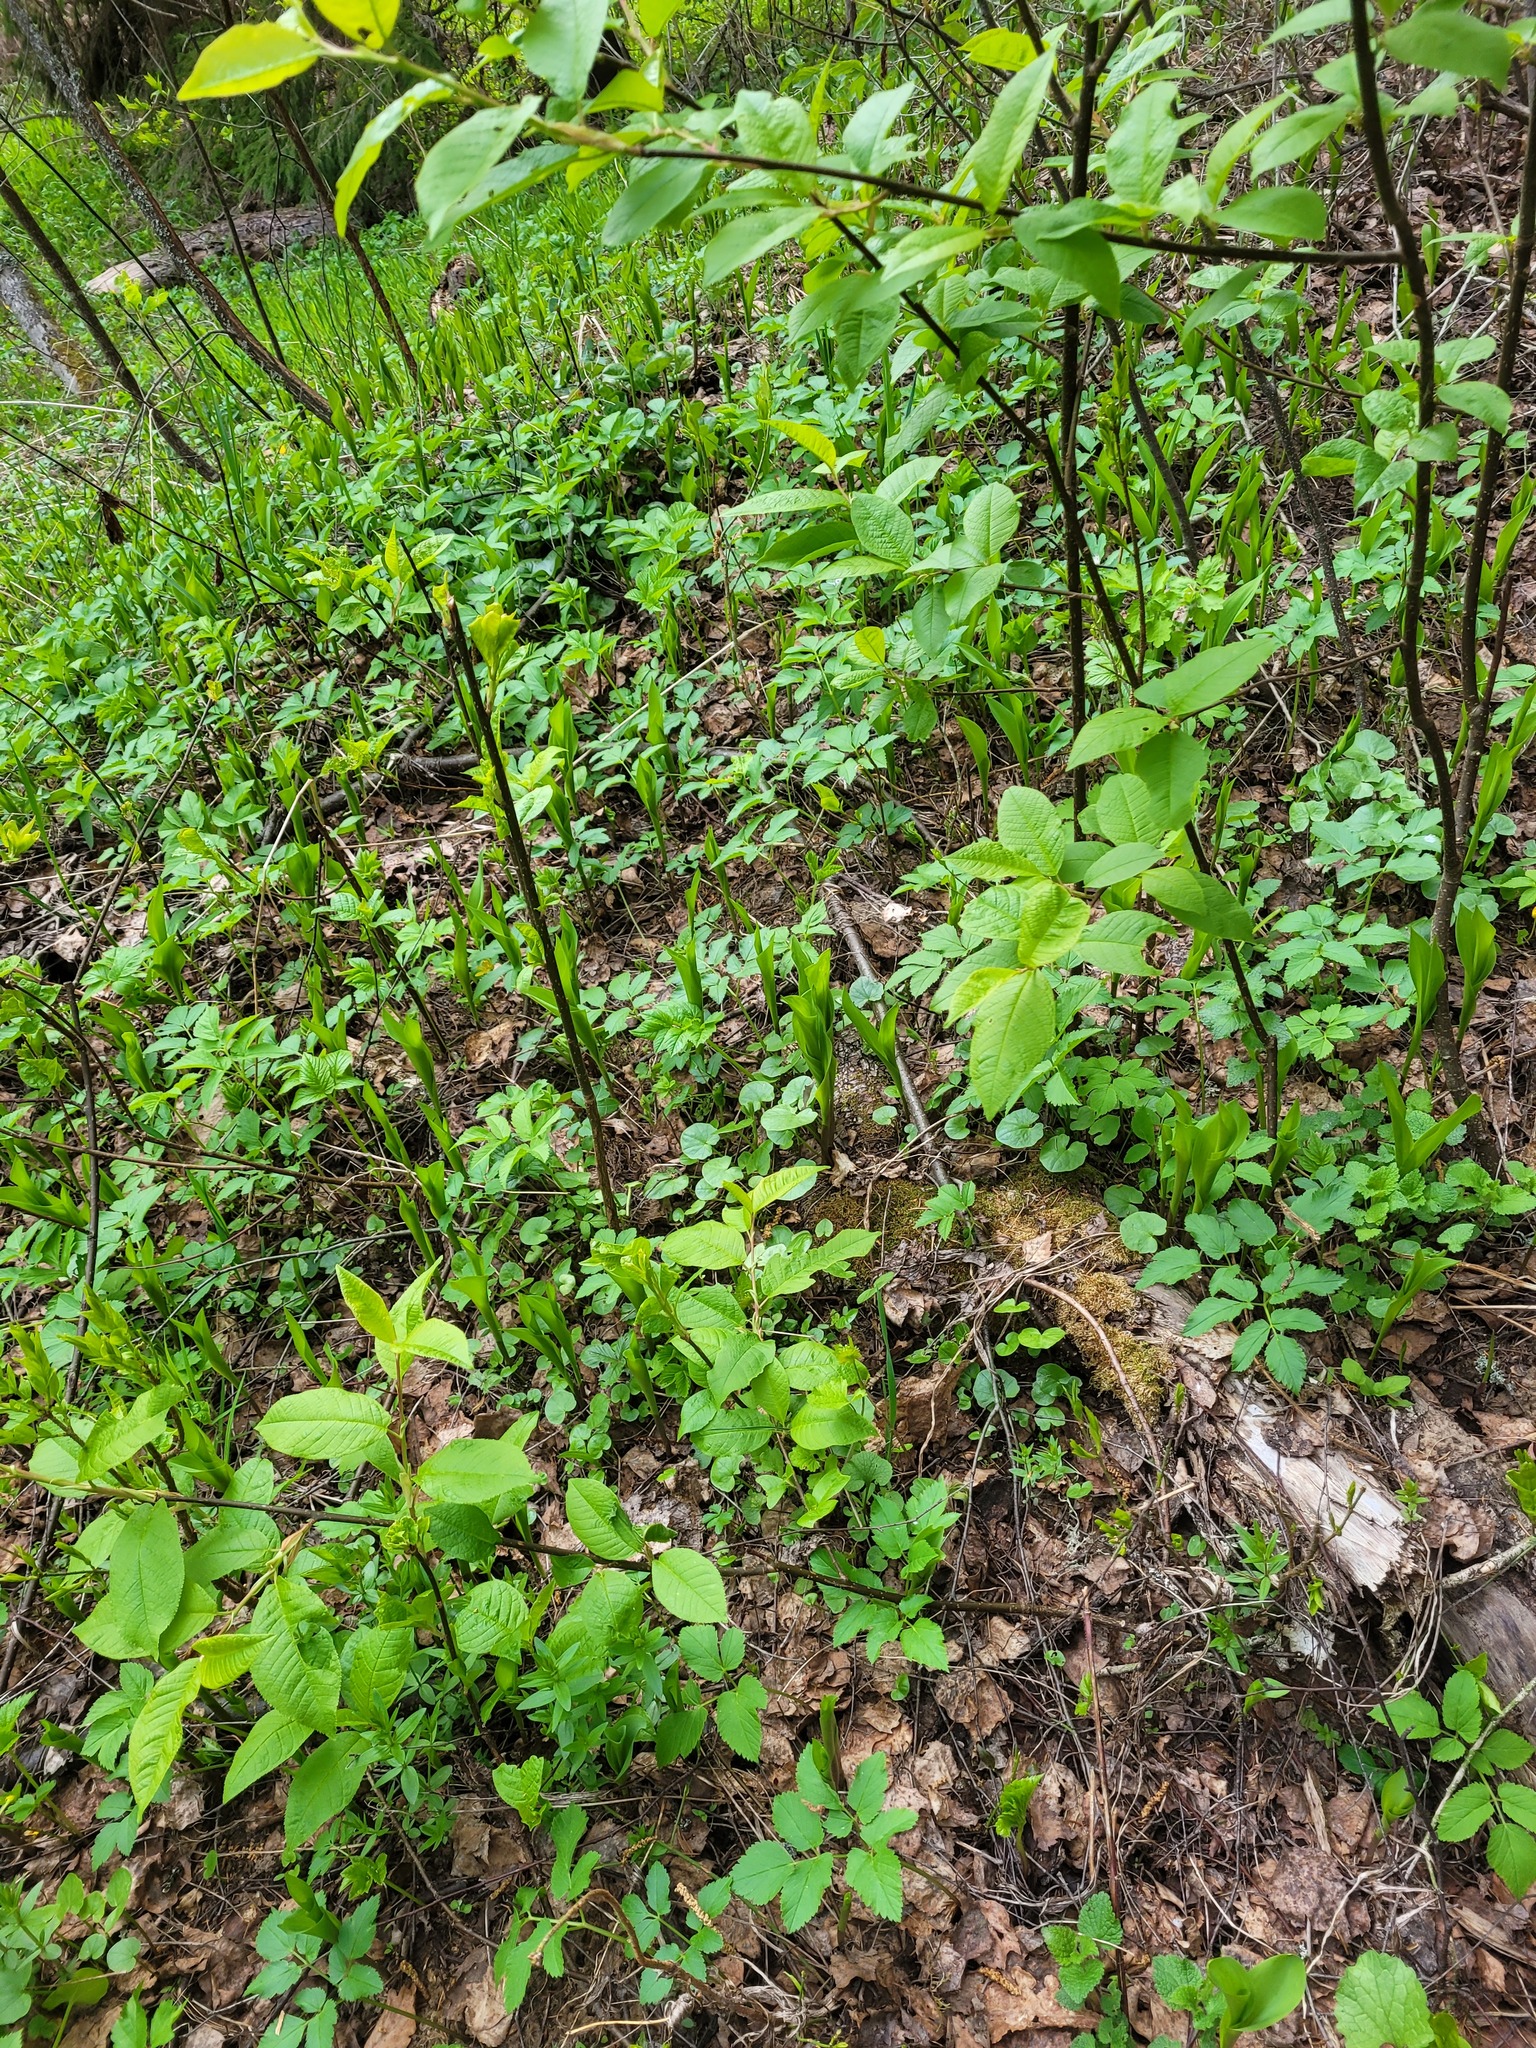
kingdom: Plantae
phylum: Tracheophyta
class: Liliopsida
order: Asparagales
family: Asparagaceae
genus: Convallaria
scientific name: Convallaria majalis
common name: Lily-of-the-valley
